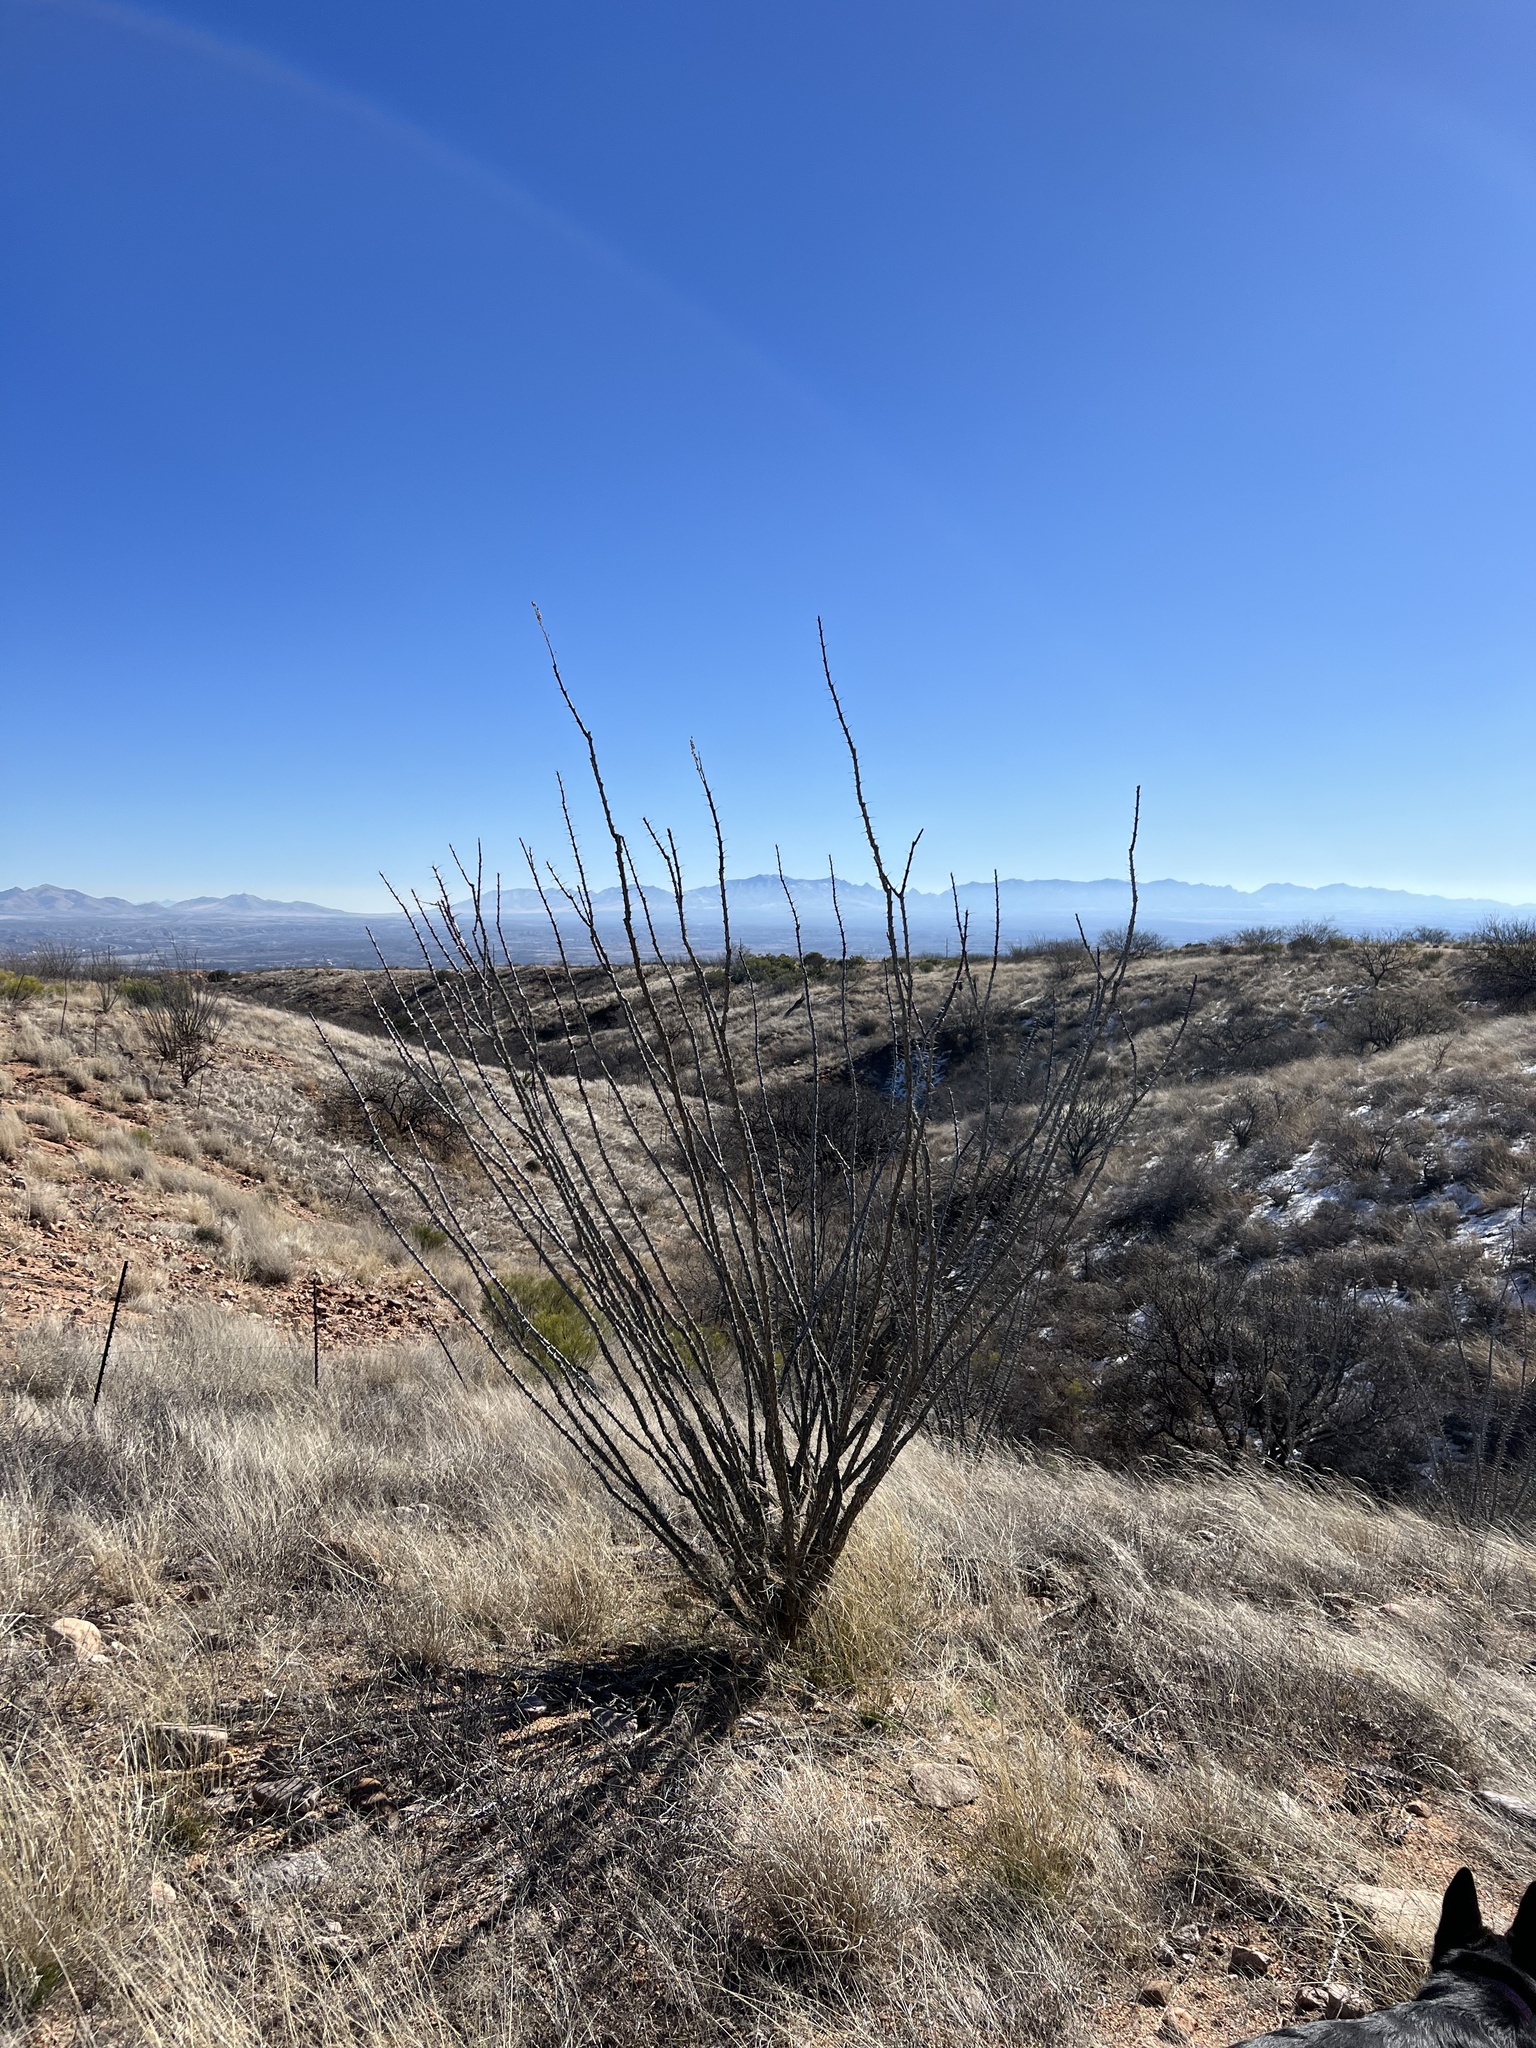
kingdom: Plantae
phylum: Tracheophyta
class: Magnoliopsida
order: Ericales
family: Fouquieriaceae
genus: Fouquieria
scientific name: Fouquieria splendens
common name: Vine-cactus
